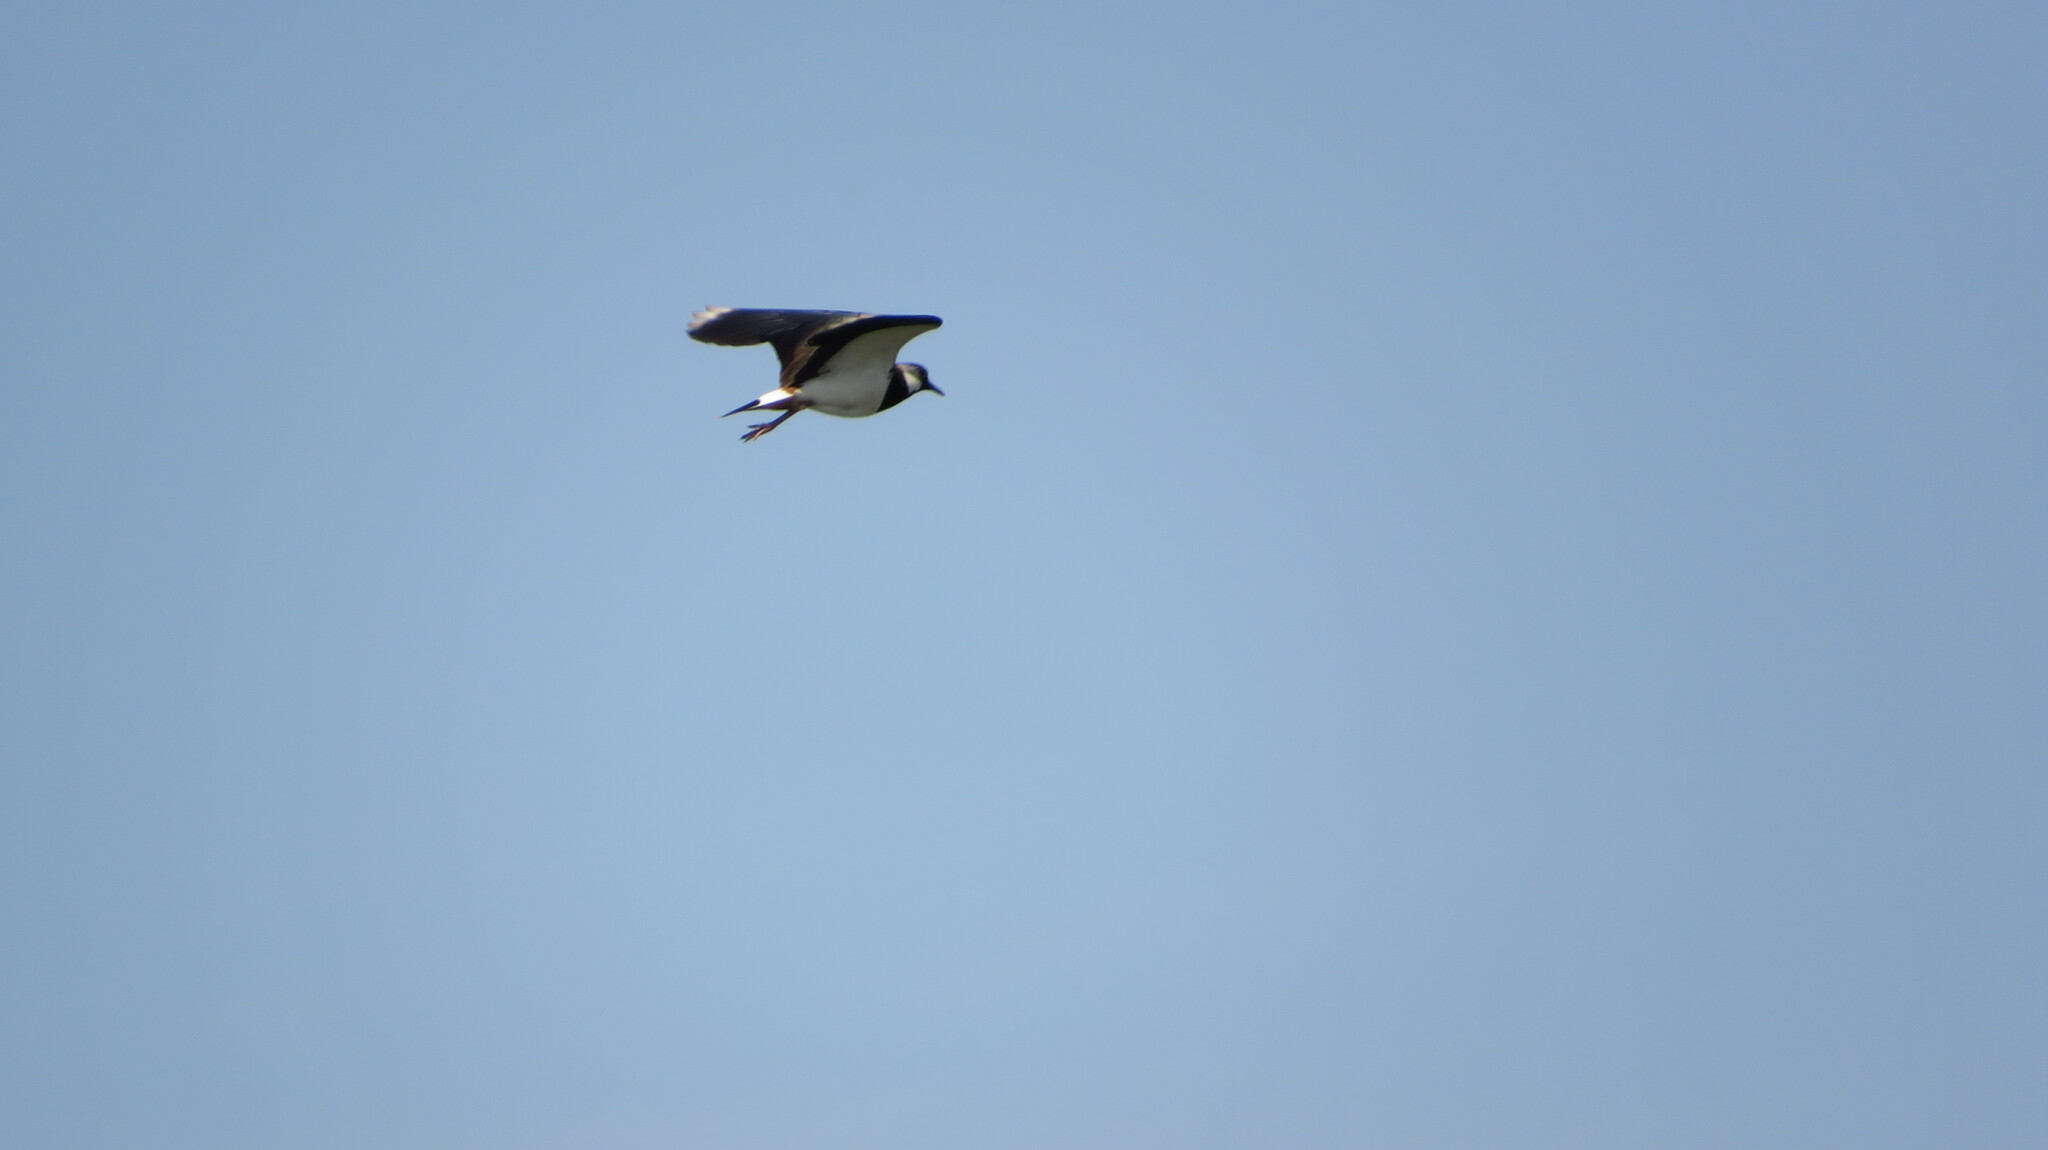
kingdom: Animalia
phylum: Chordata
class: Aves
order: Charadriiformes
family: Charadriidae
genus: Vanellus
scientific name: Vanellus vanellus
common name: Northern lapwing
